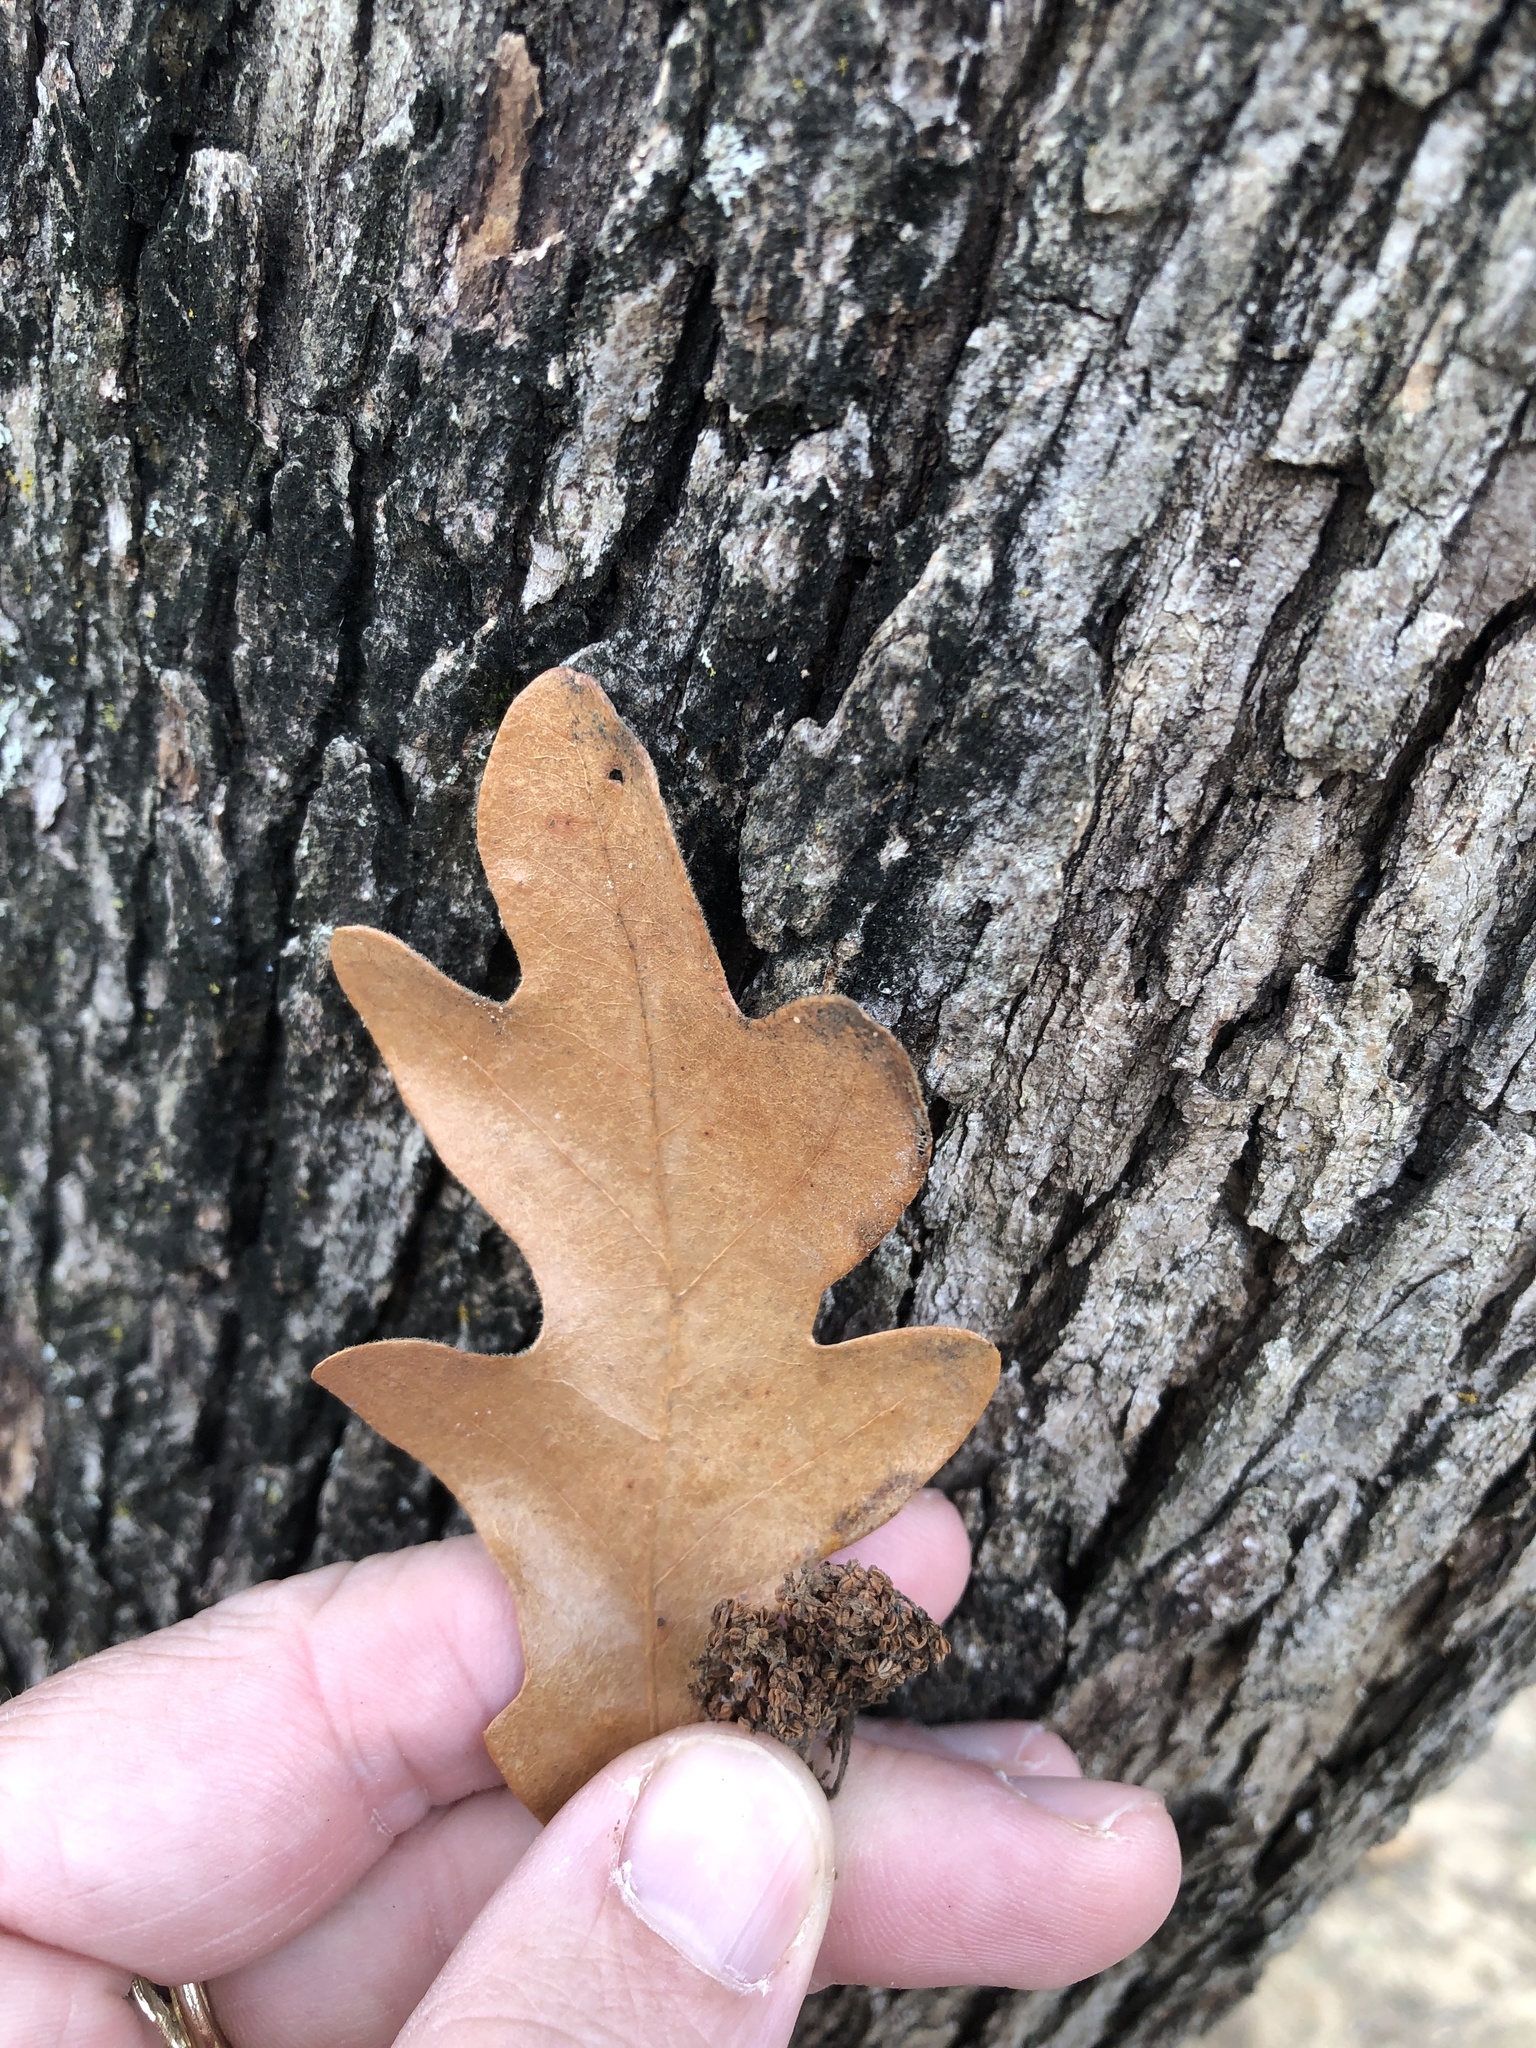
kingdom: Plantae
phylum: Tracheophyta
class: Magnoliopsida
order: Fagales
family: Fagaceae
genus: Quercus
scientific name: Quercus stellata
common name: Post oak
